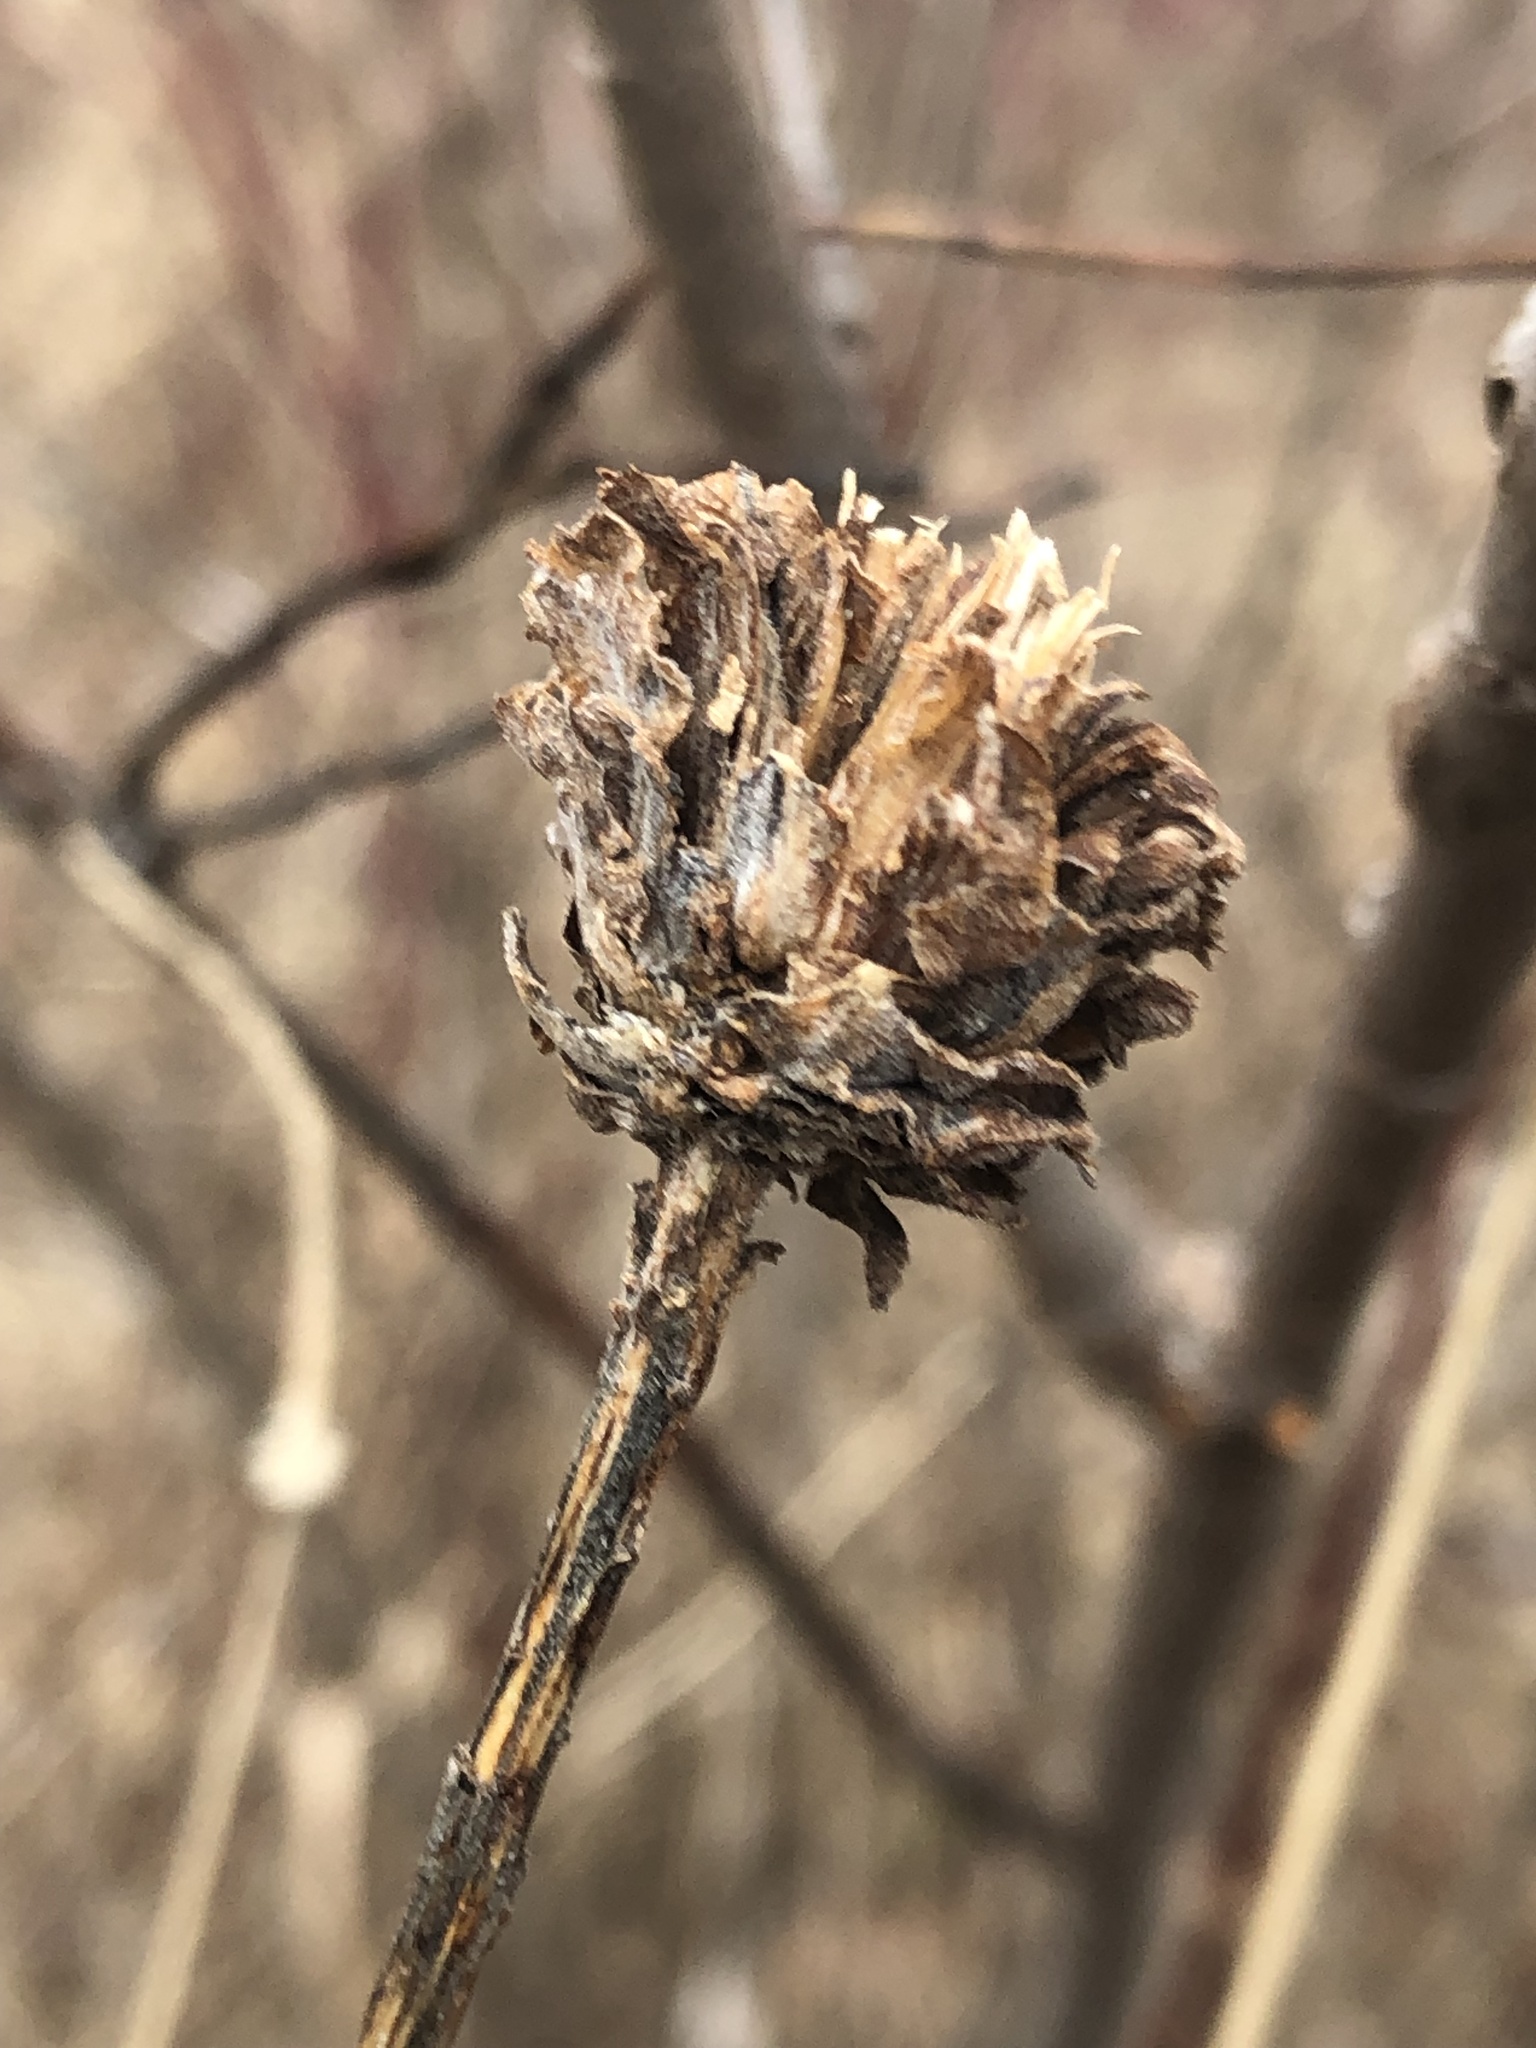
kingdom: Animalia
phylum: Arthropoda
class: Insecta
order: Diptera
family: Cecidomyiidae
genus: Rhopalomyia
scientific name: Rhopalomyia solidaginis
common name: Goldenrod bunch gall midge
